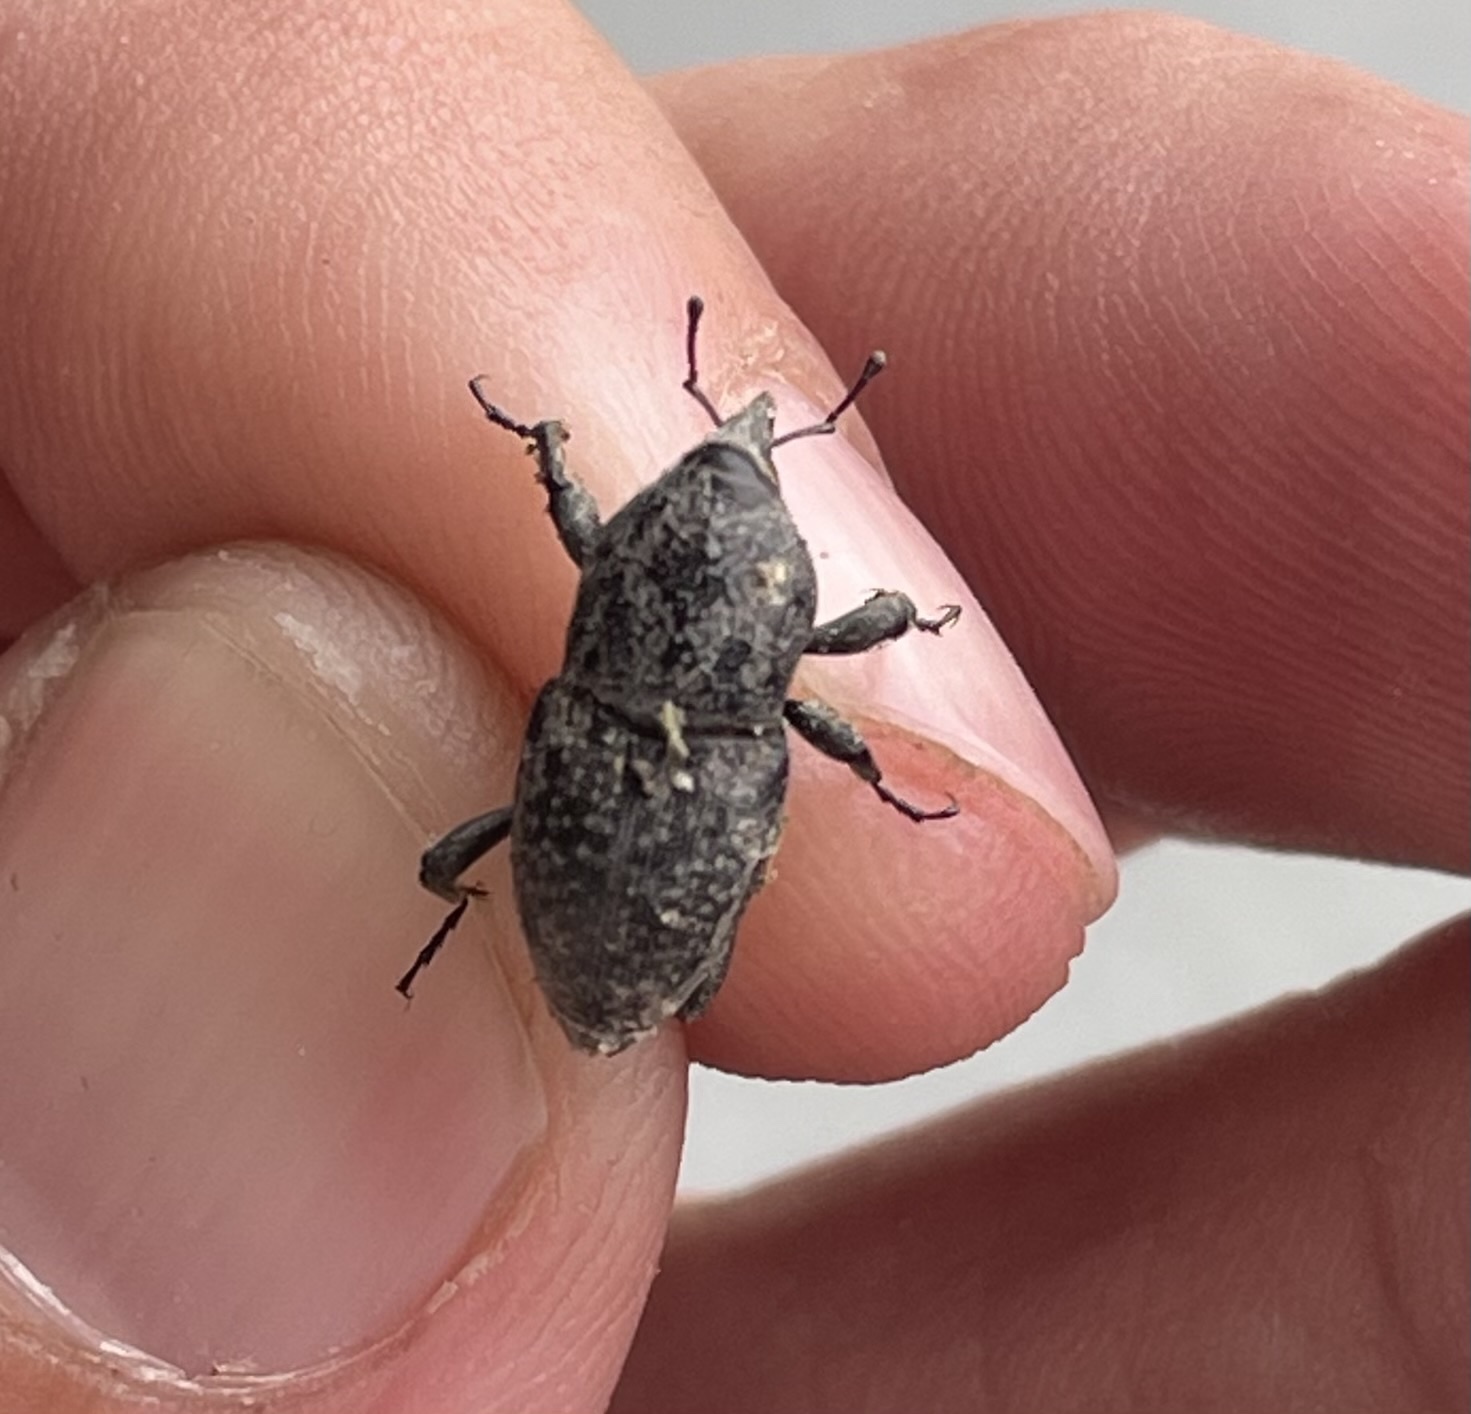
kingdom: Animalia
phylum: Arthropoda
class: Insecta
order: Coleoptera
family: Dryophthoridae
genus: Sphenophorus
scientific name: Sphenophorus germari
